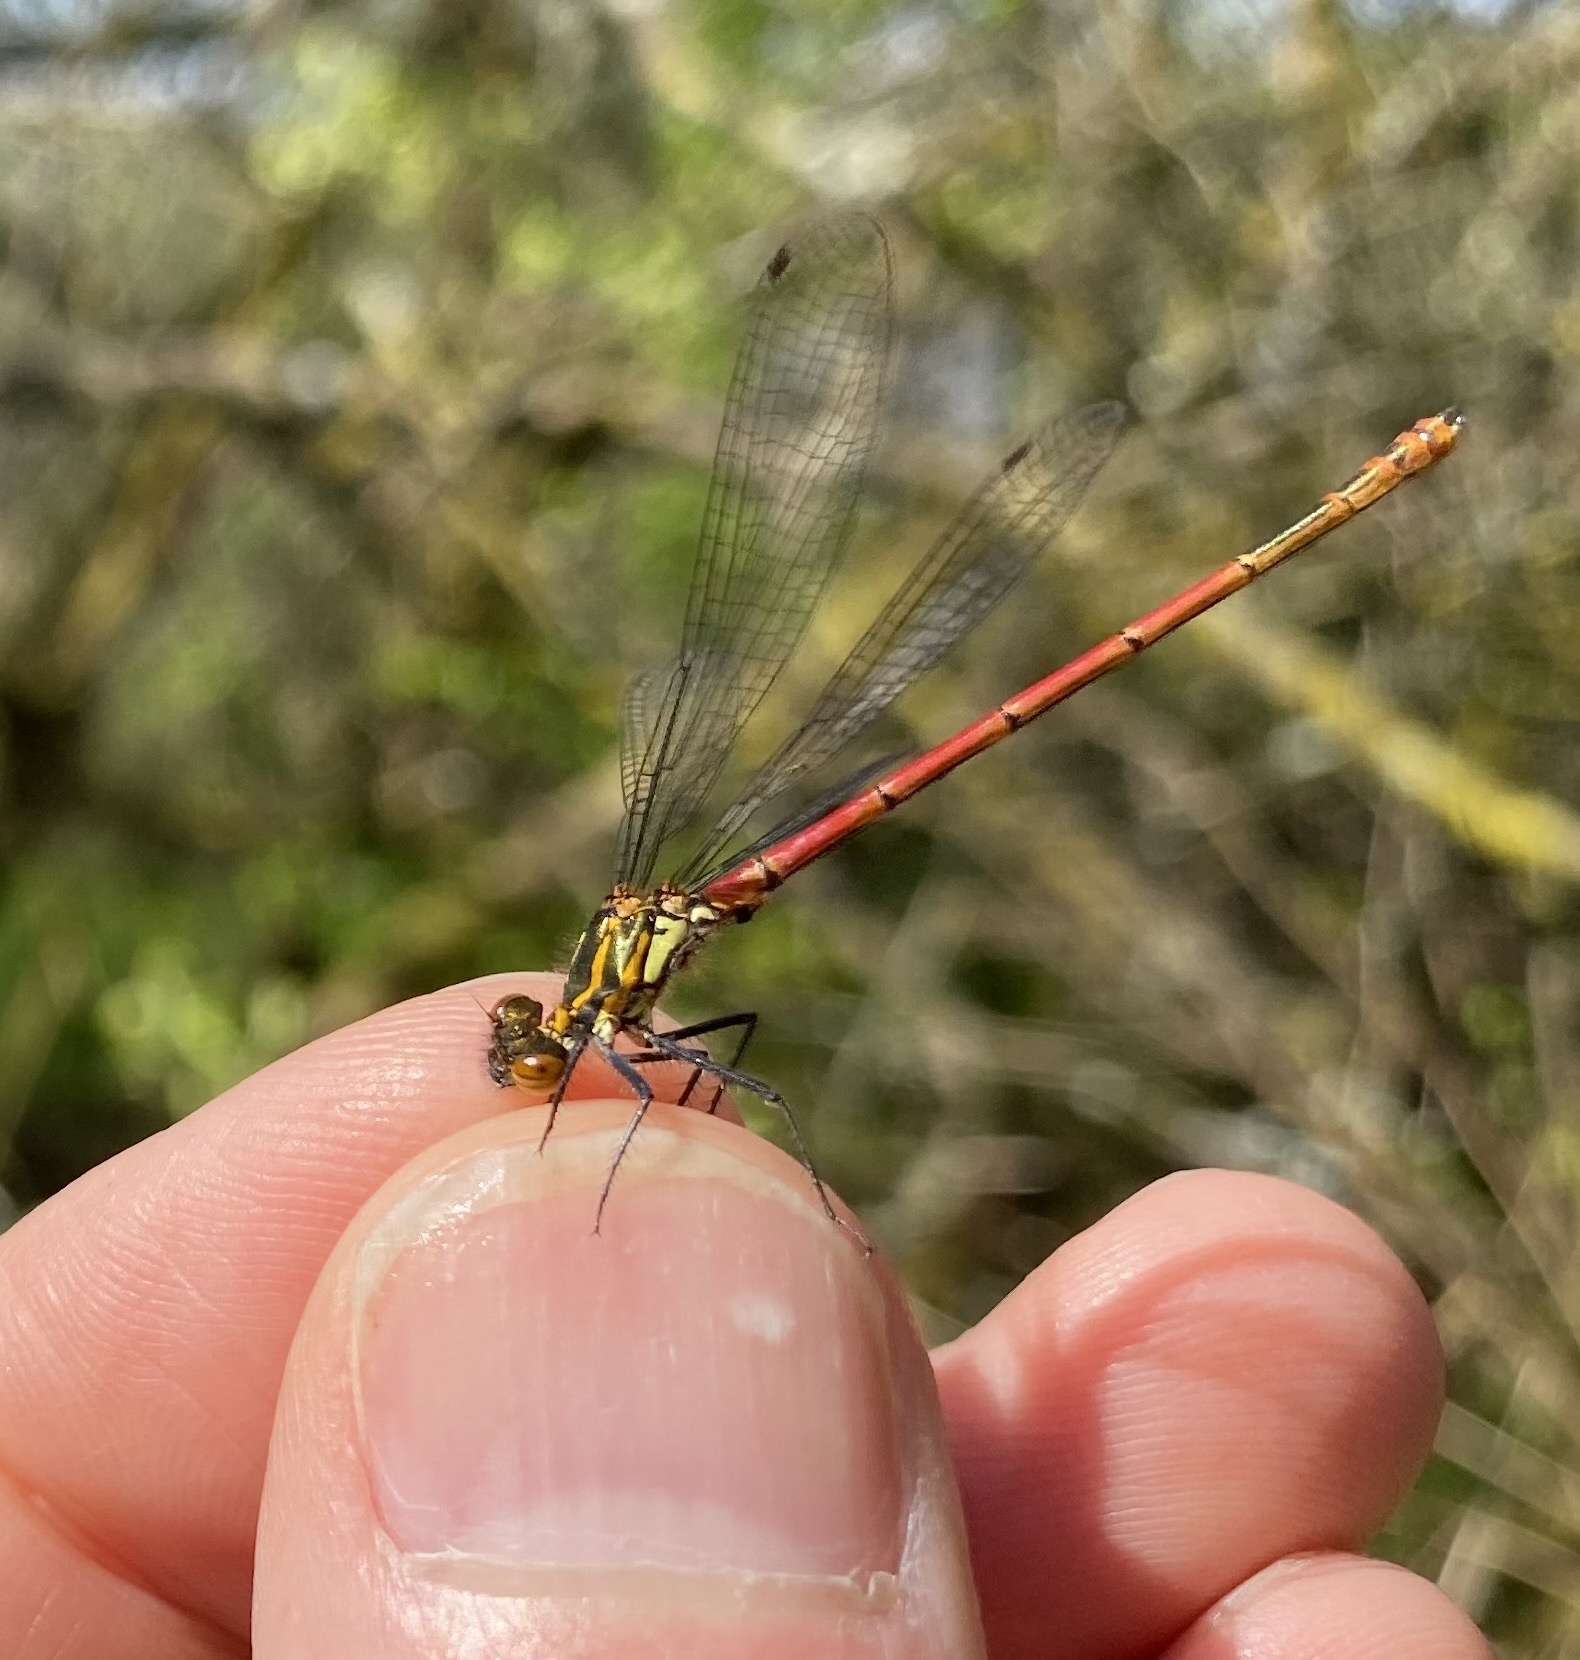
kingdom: Animalia
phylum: Arthropoda
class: Insecta
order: Odonata
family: Coenagrionidae
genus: Pyrrhosoma
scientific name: Pyrrhosoma nymphula
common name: Large red damsel
